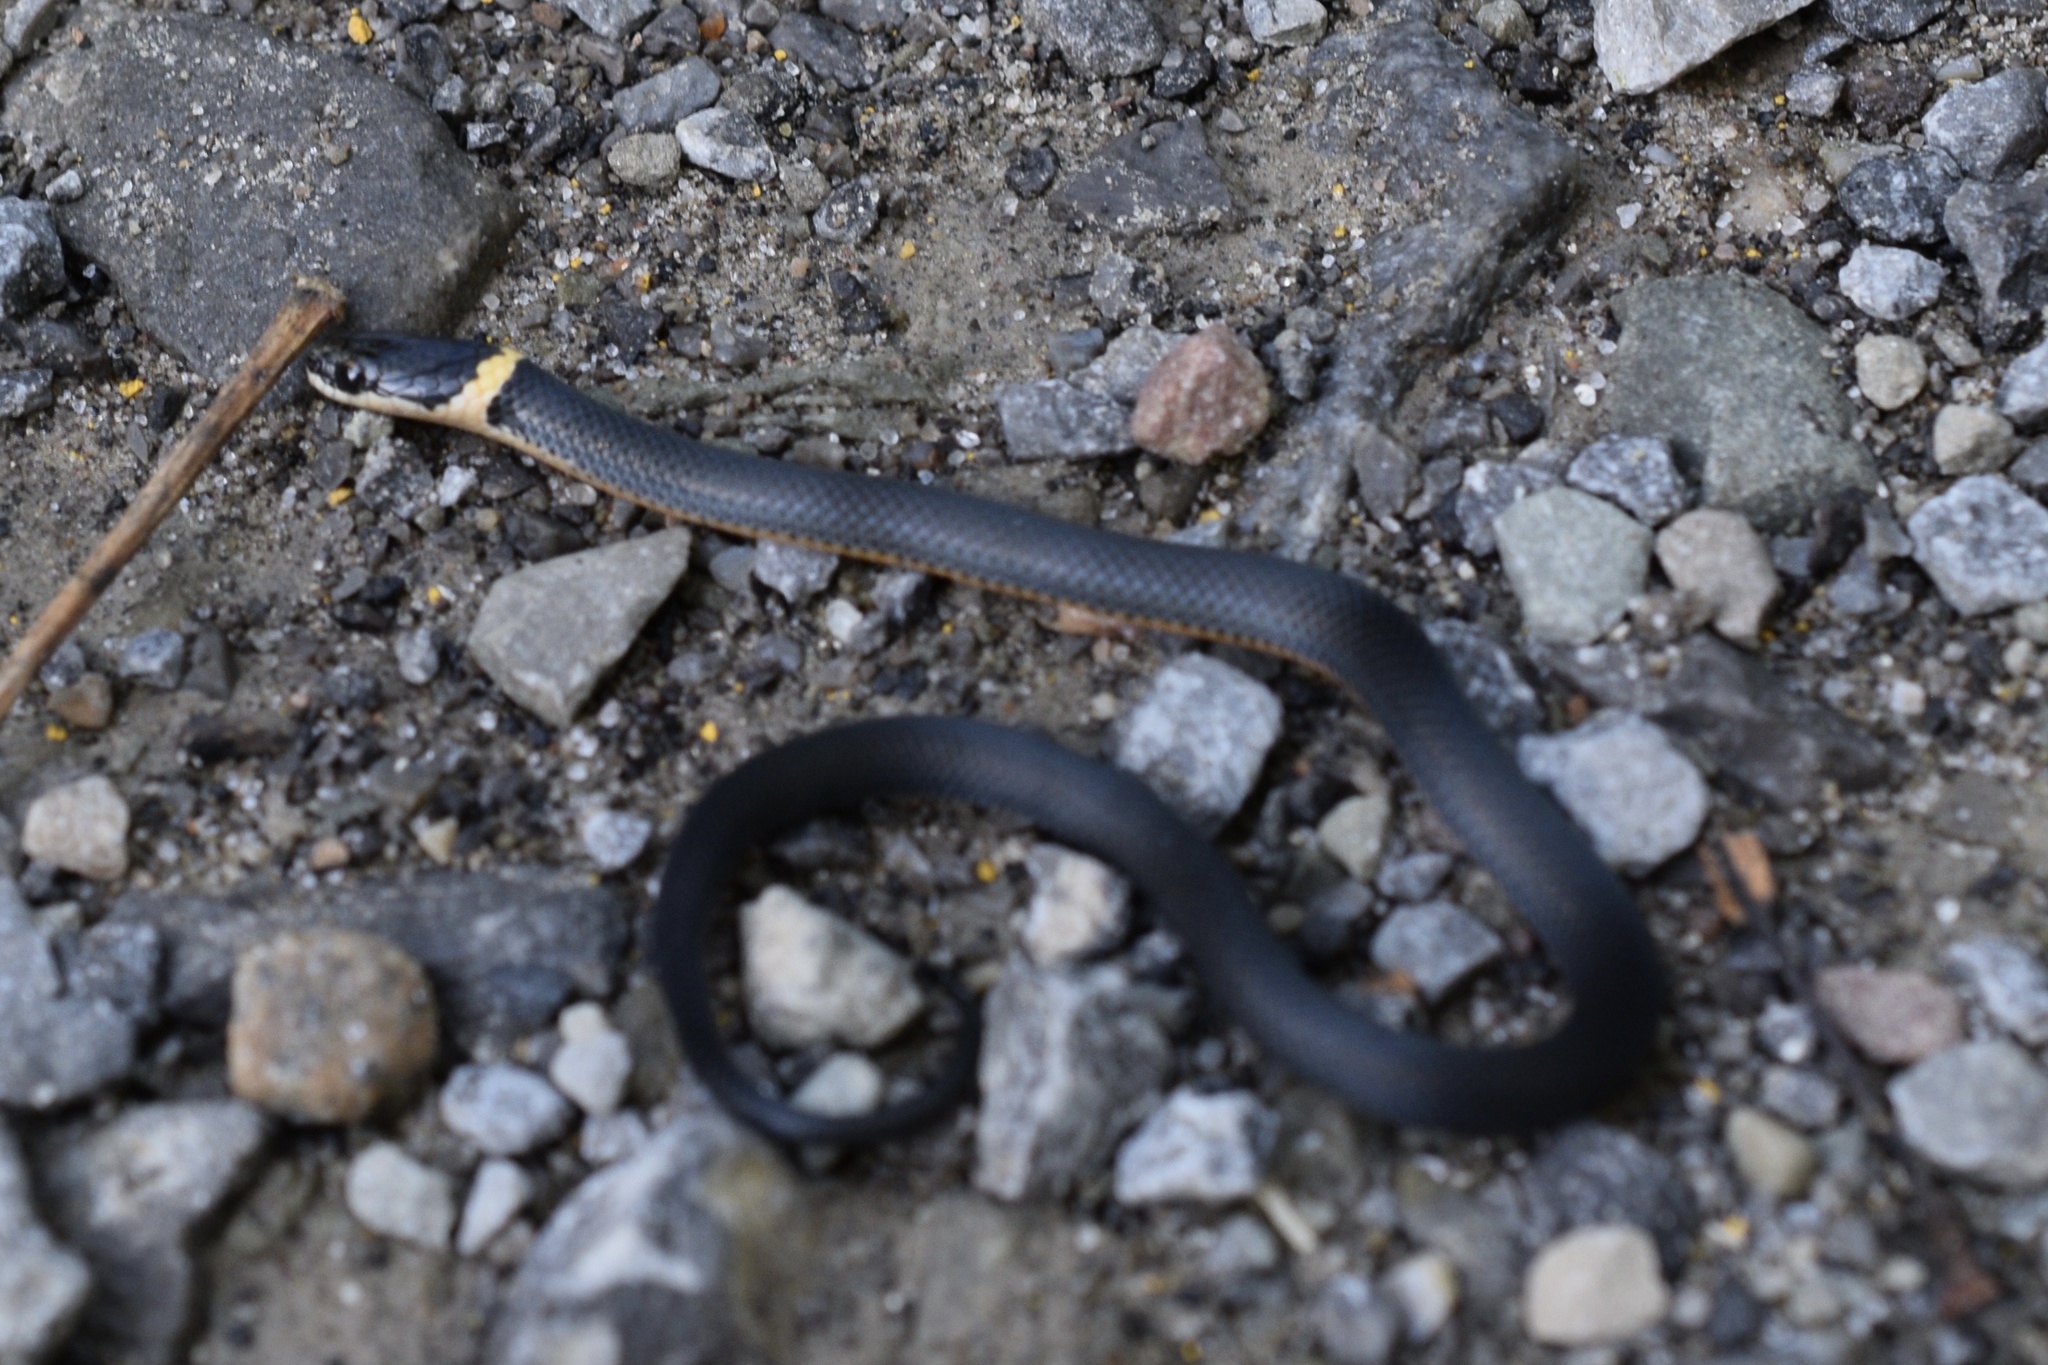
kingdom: Animalia
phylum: Chordata
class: Squamata
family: Colubridae
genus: Diadophis
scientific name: Diadophis punctatus
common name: Ringneck snake
